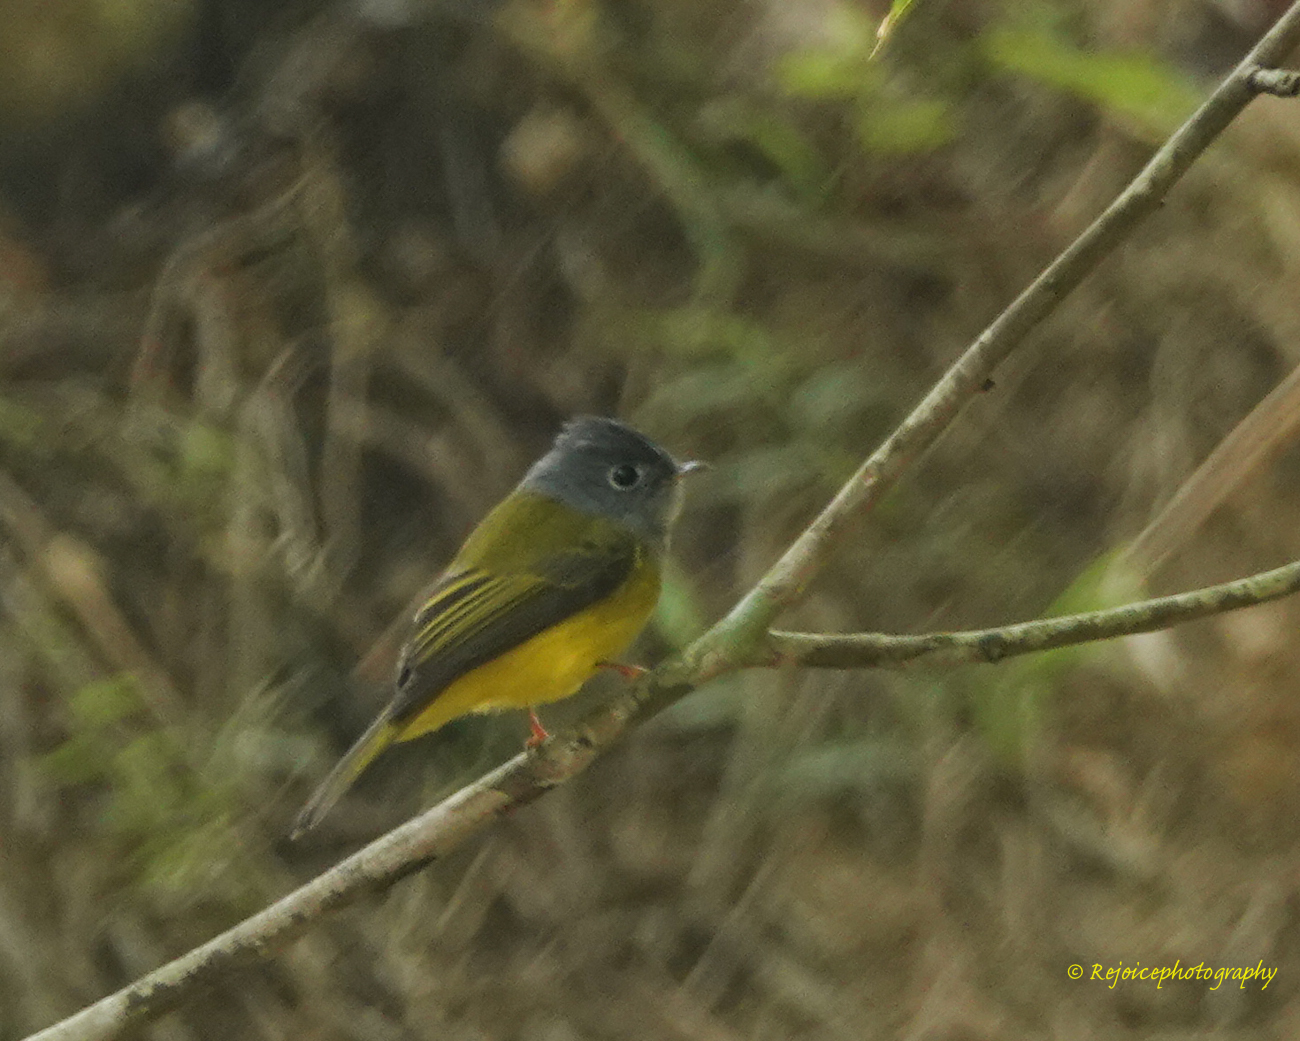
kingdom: Animalia
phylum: Chordata
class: Aves
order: Passeriformes
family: Stenostiridae
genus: Culicicapa
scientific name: Culicicapa ceylonensis
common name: Grey-headed canary-flycatcher
